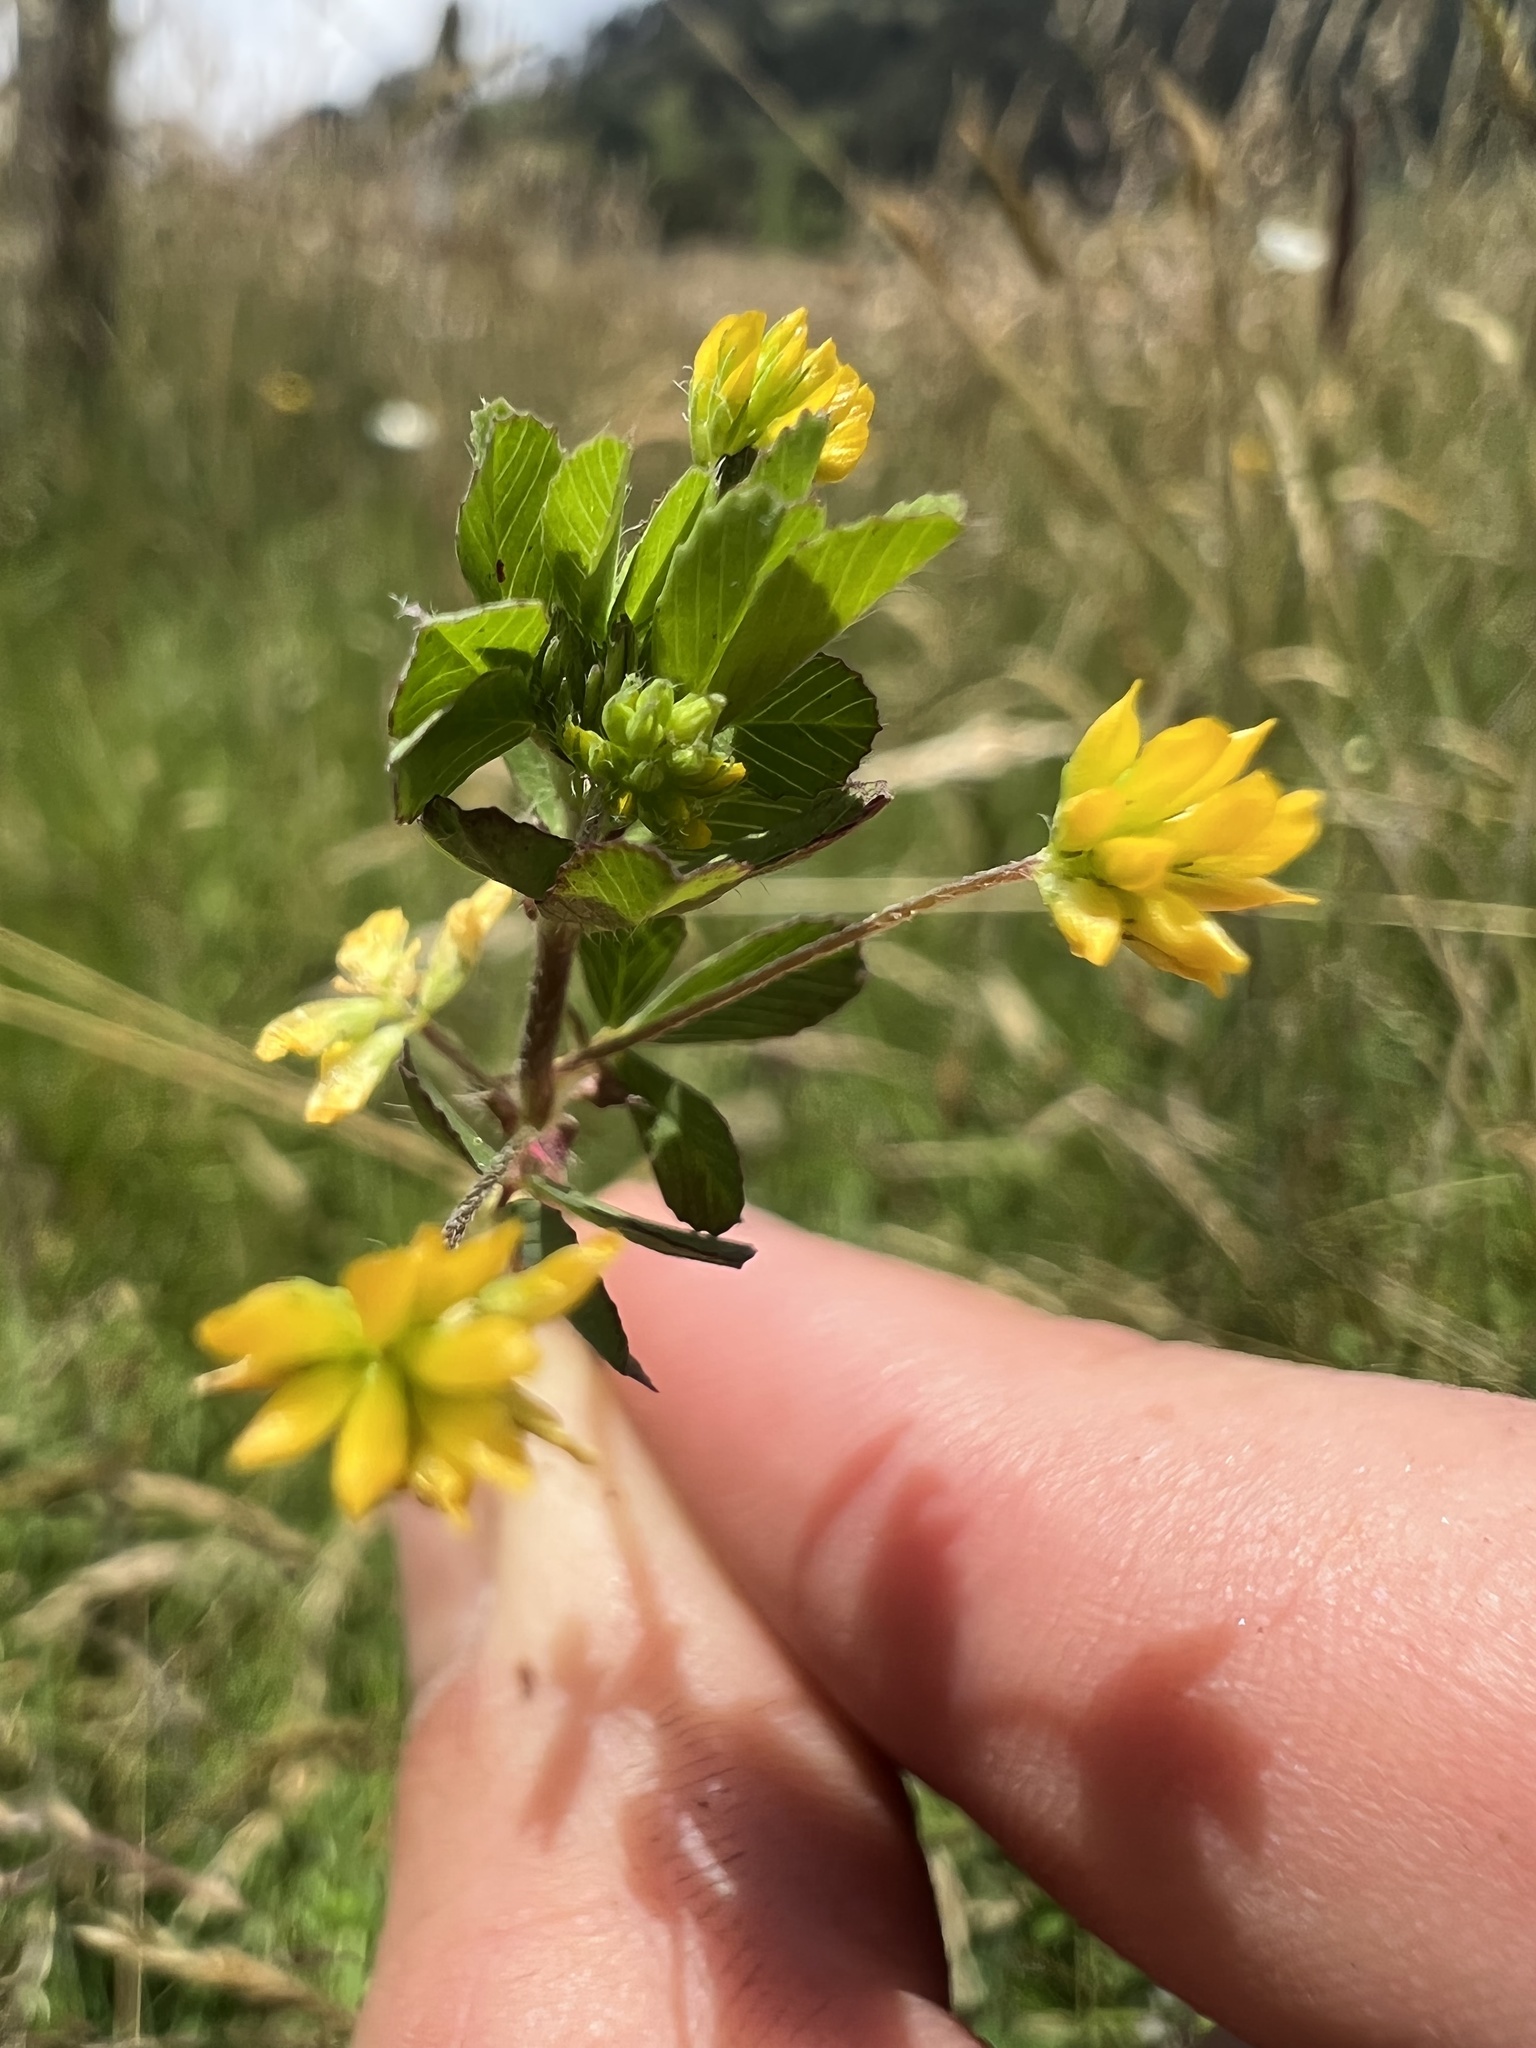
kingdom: Plantae
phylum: Tracheophyta
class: Magnoliopsida
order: Fabales
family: Fabaceae
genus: Trifolium
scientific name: Trifolium dubium
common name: Suckling clover
